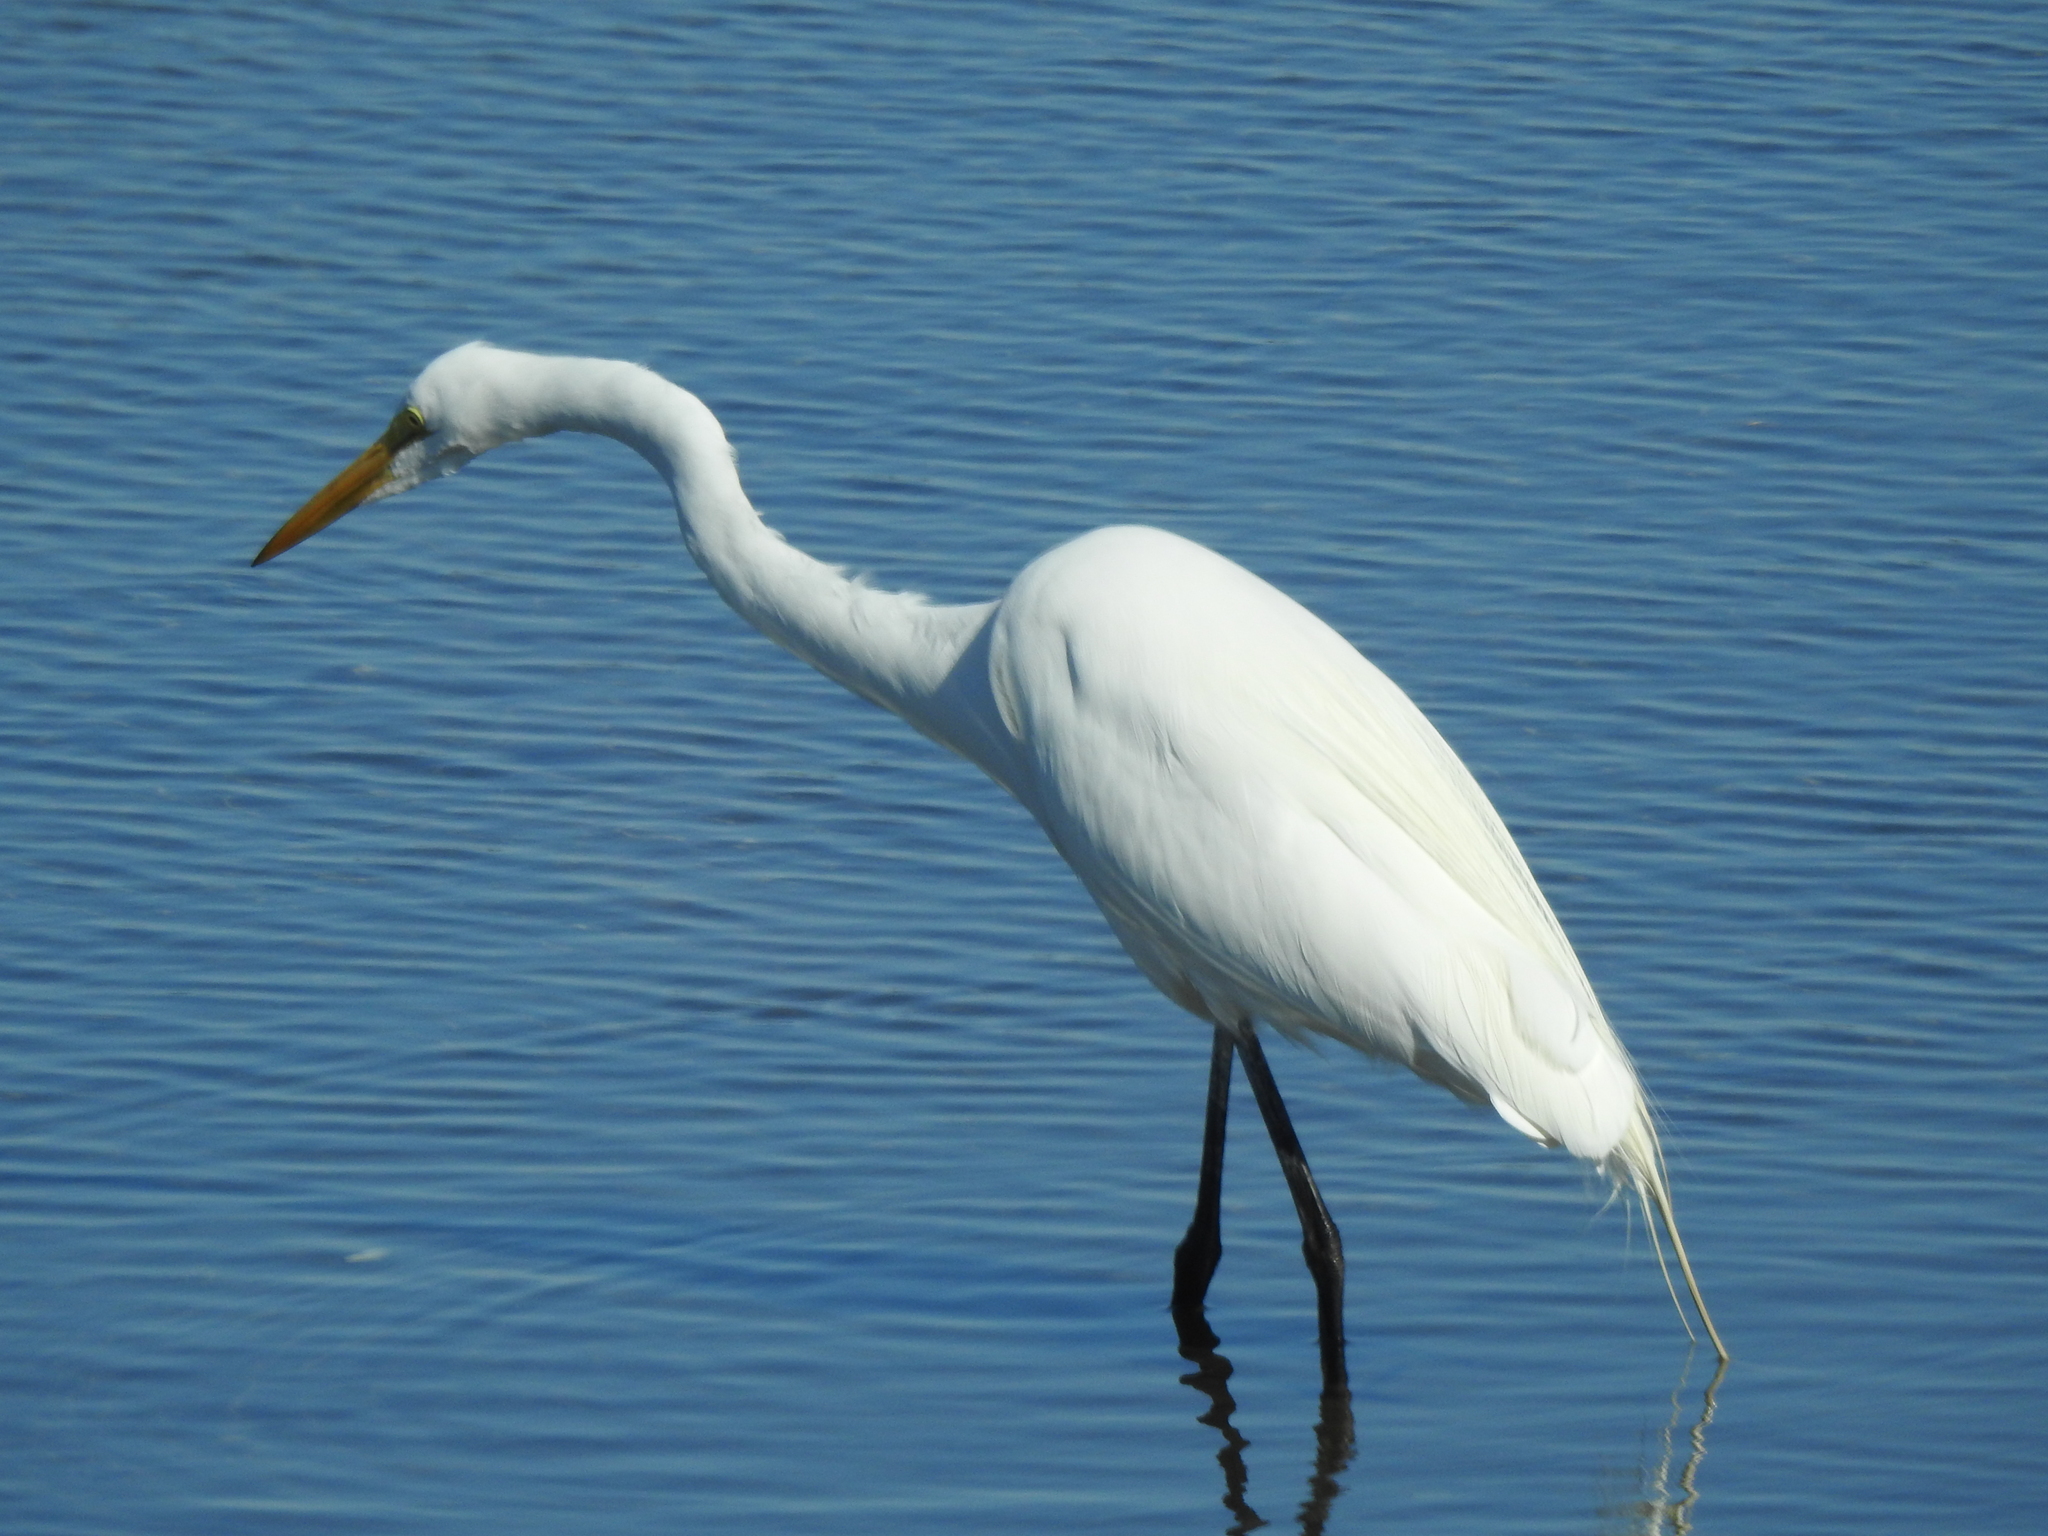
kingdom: Animalia
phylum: Chordata
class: Aves
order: Pelecaniformes
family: Ardeidae
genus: Ardea
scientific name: Ardea alba
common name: Great egret
